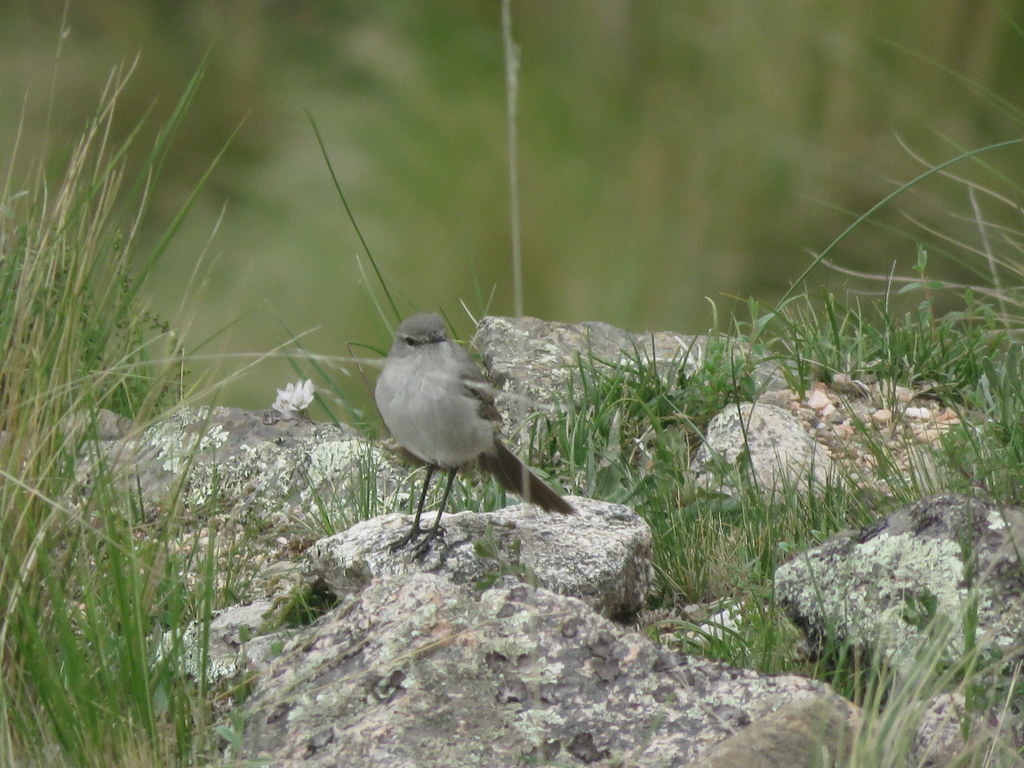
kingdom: Animalia
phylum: Chordata
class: Aves
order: Passeriformes
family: Tyrannidae
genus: Muscisaxicola
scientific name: Muscisaxicola cinereus
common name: Cinereous ground tyrant
